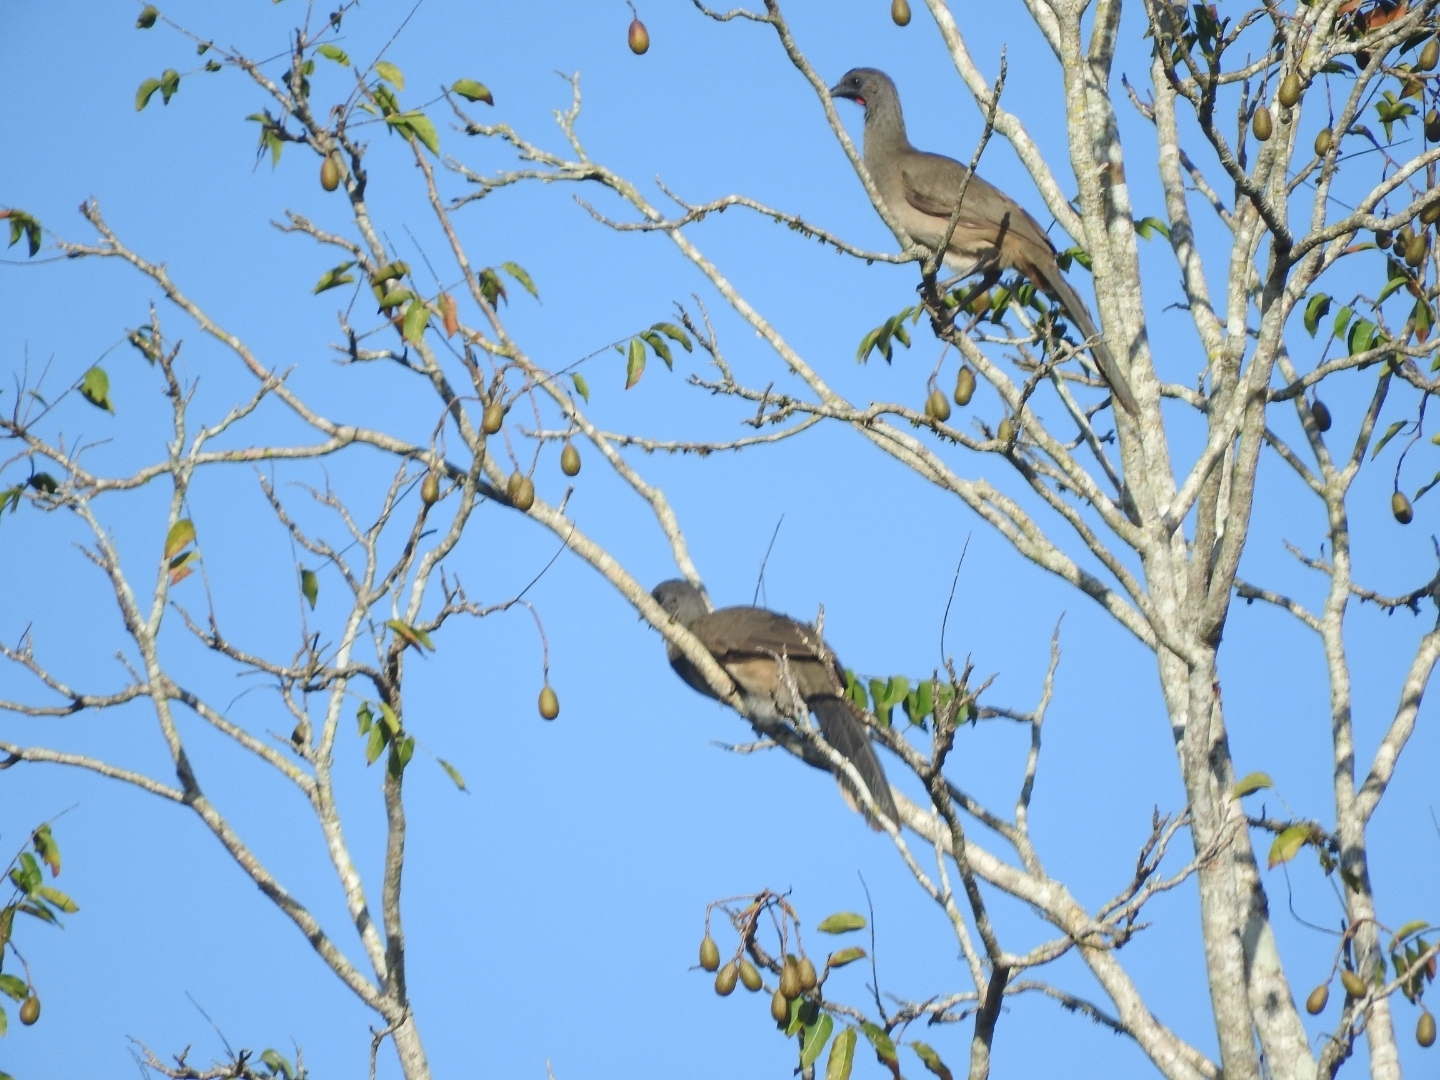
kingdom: Animalia
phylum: Chordata
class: Aves
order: Galliformes
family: Cracidae
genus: Ortalis
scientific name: Ortalis vetula
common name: Plain chachalaca
